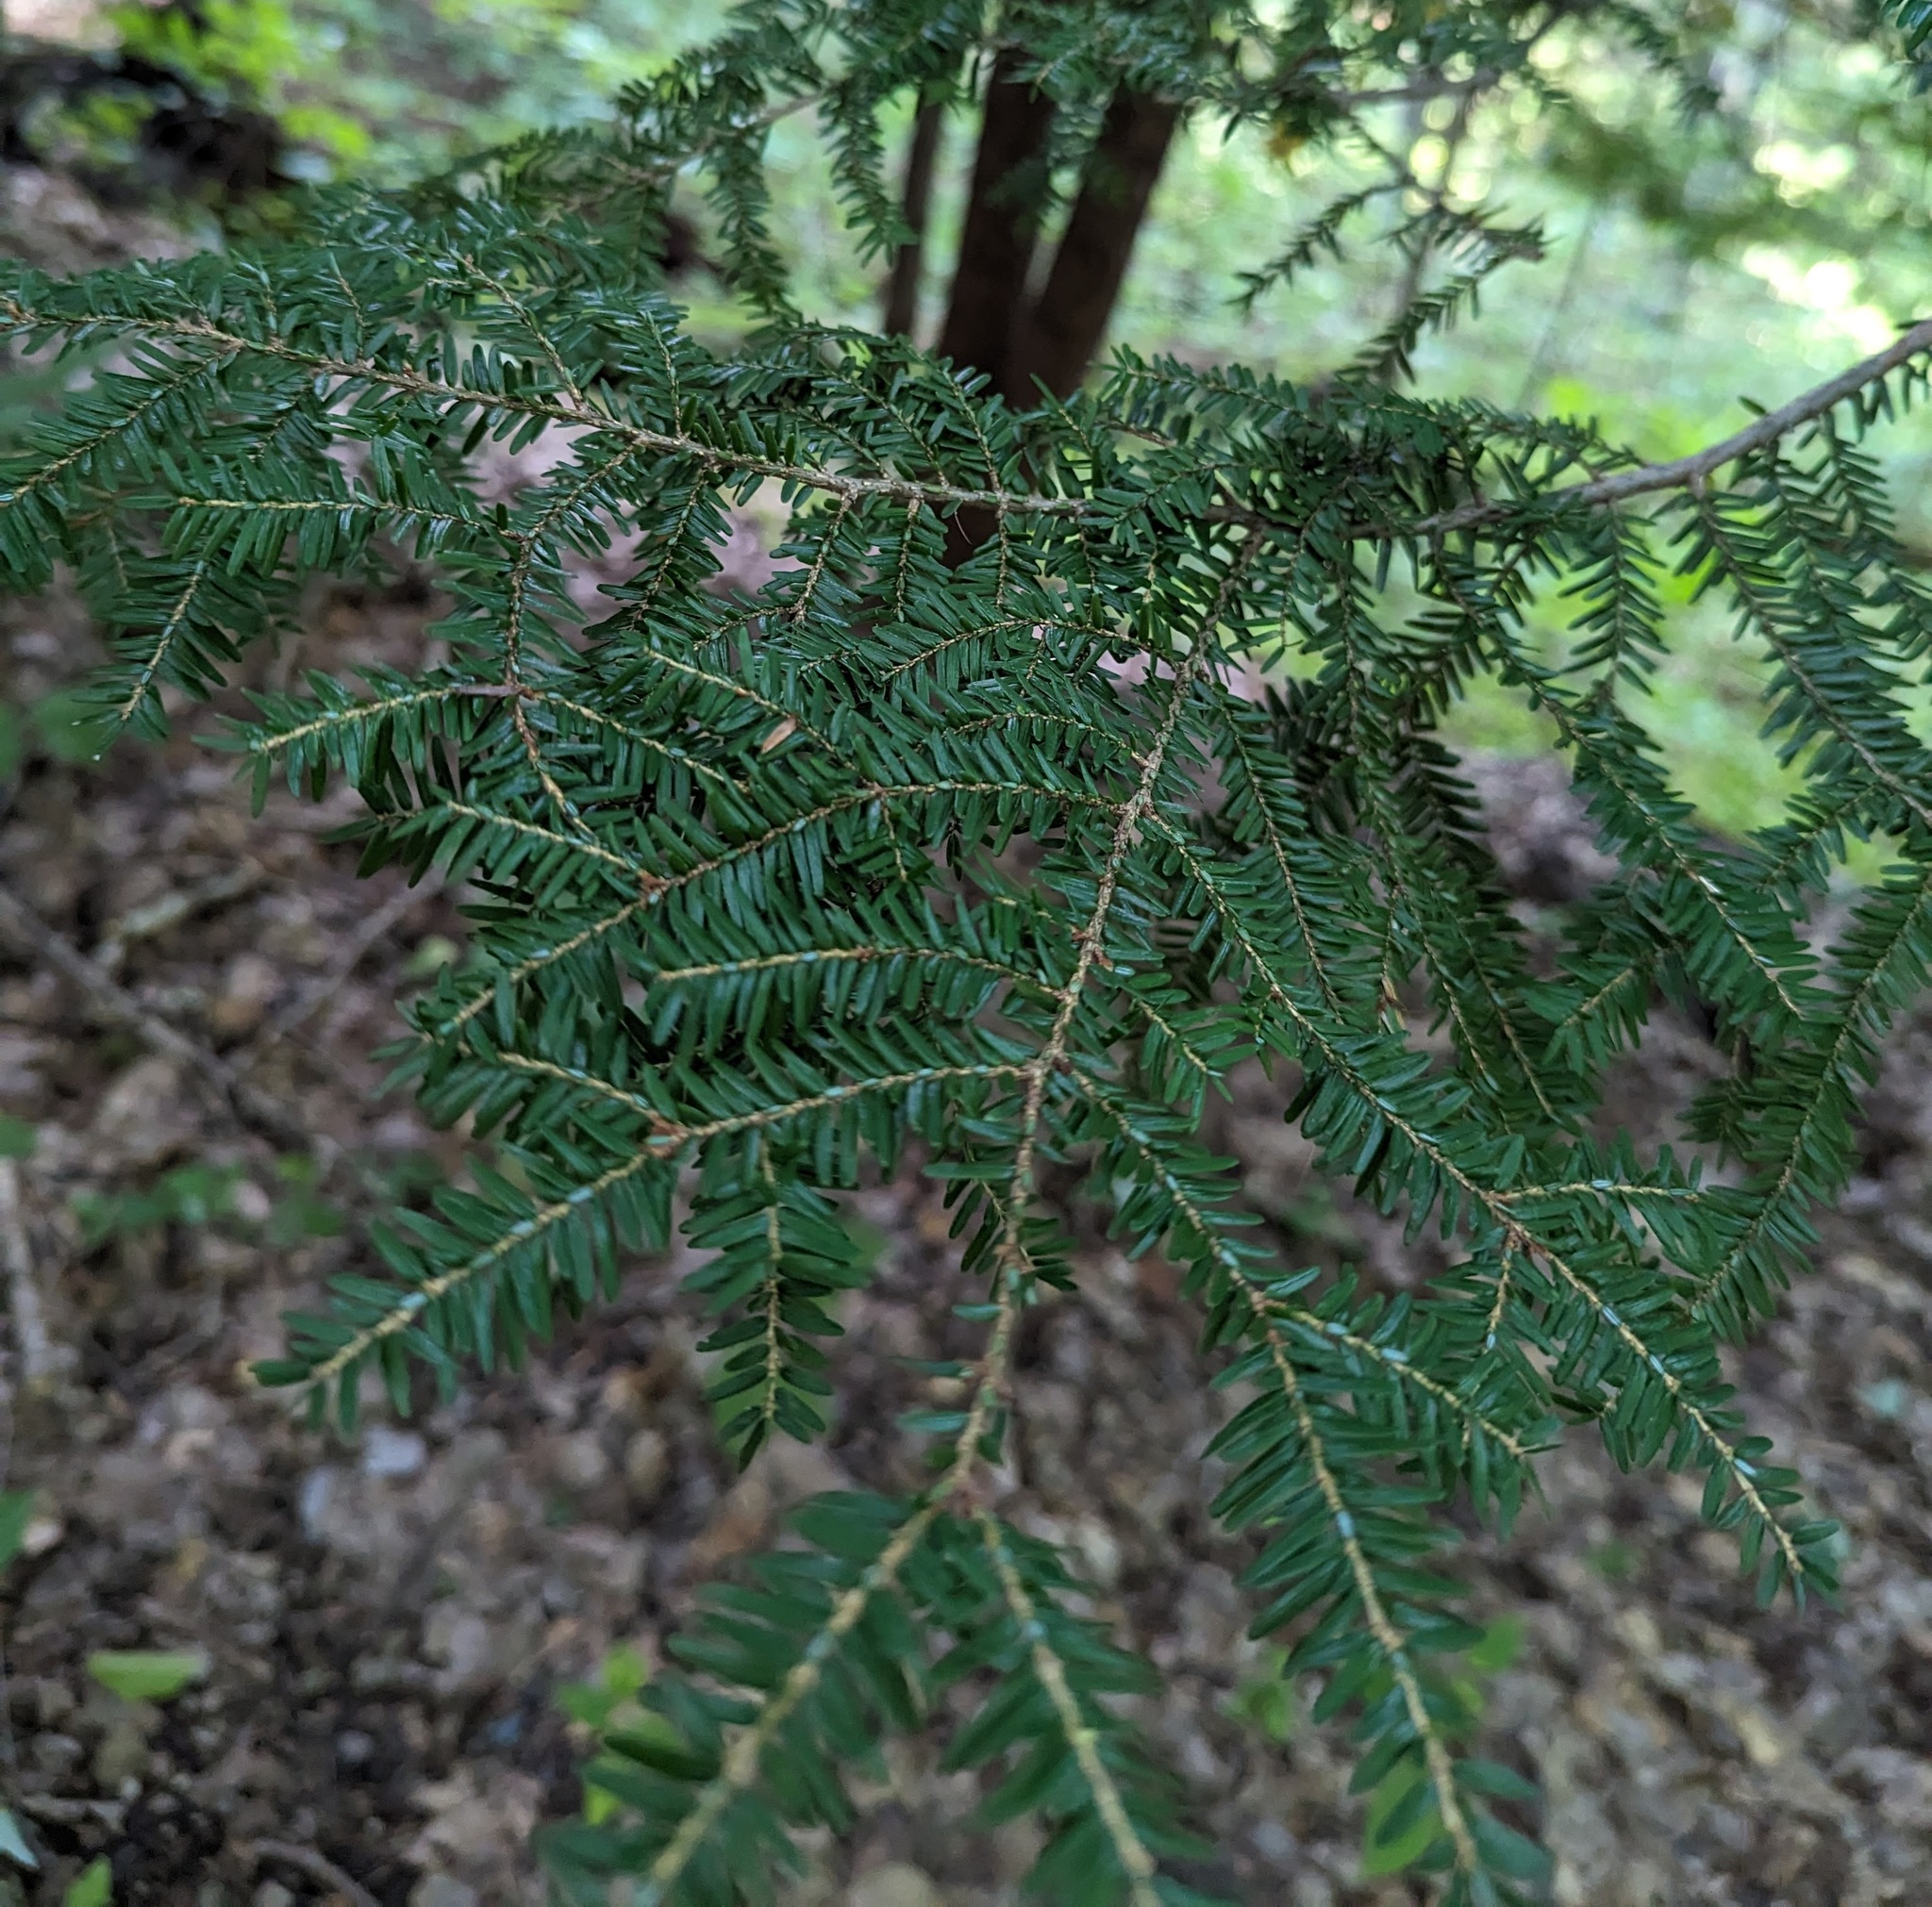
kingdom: Plantae
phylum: Tracheophyta
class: Pinopsida
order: Pinales
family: Pinaceae
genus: Tsuga
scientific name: Tsuga canadensis
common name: Eastern hemlock
